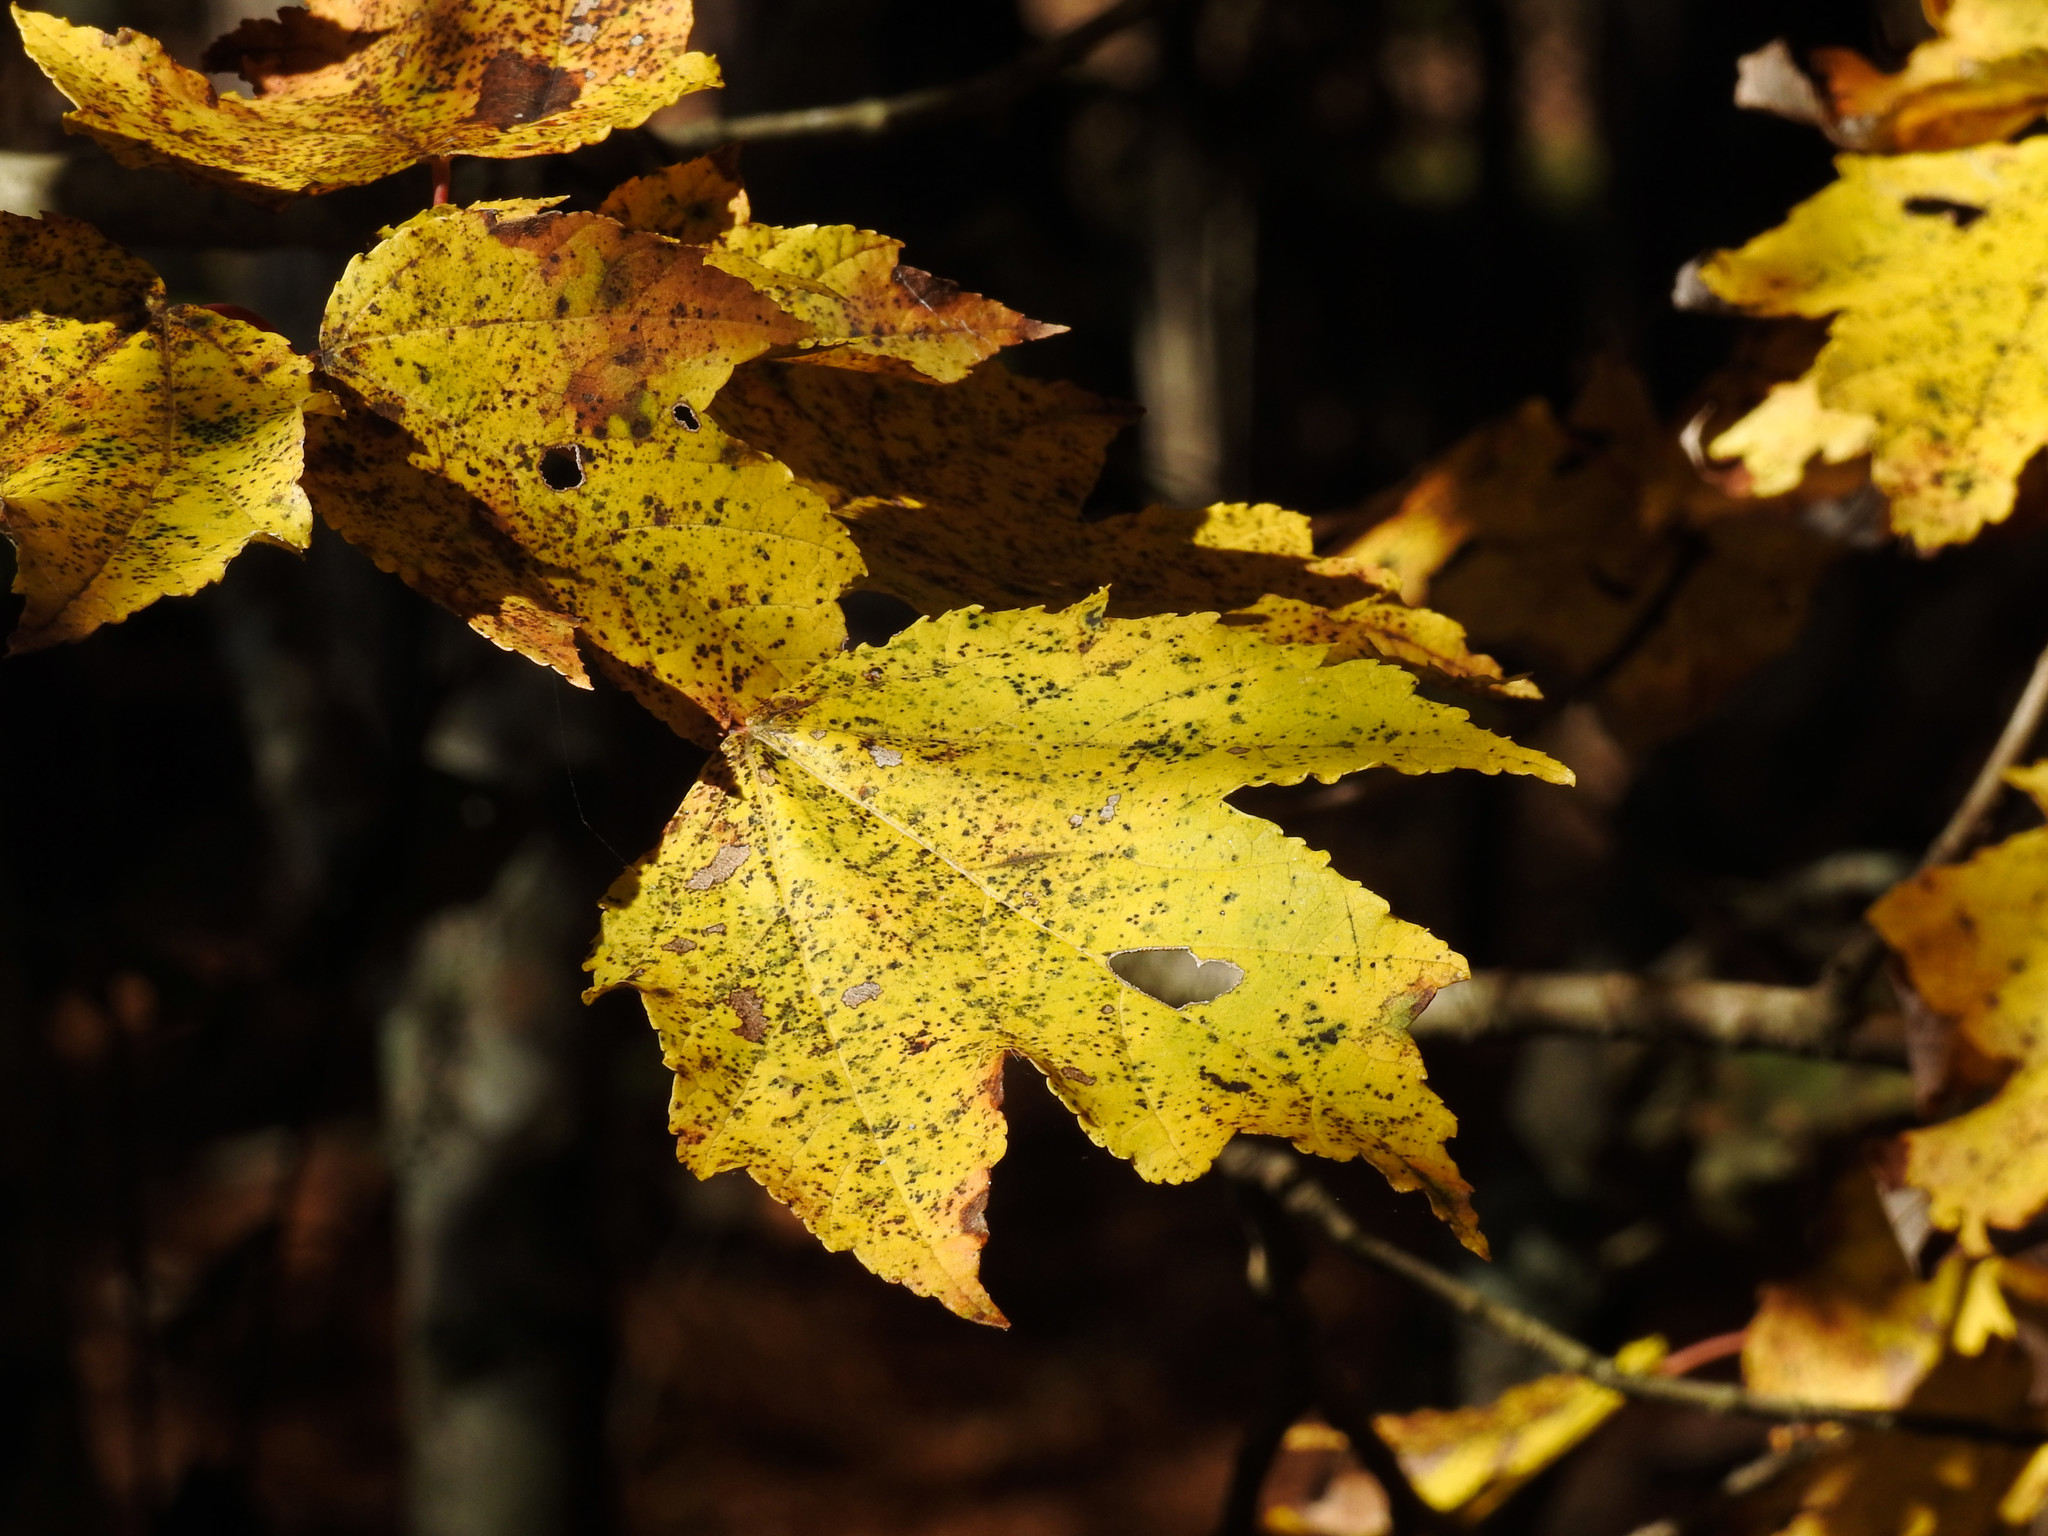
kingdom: Plantae
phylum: Tracheophyta
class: Magnoliopsida
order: Saxifragales
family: Altingiaceae
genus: Liquidambar
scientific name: Liquidambar styraciflua
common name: Sweet gum
